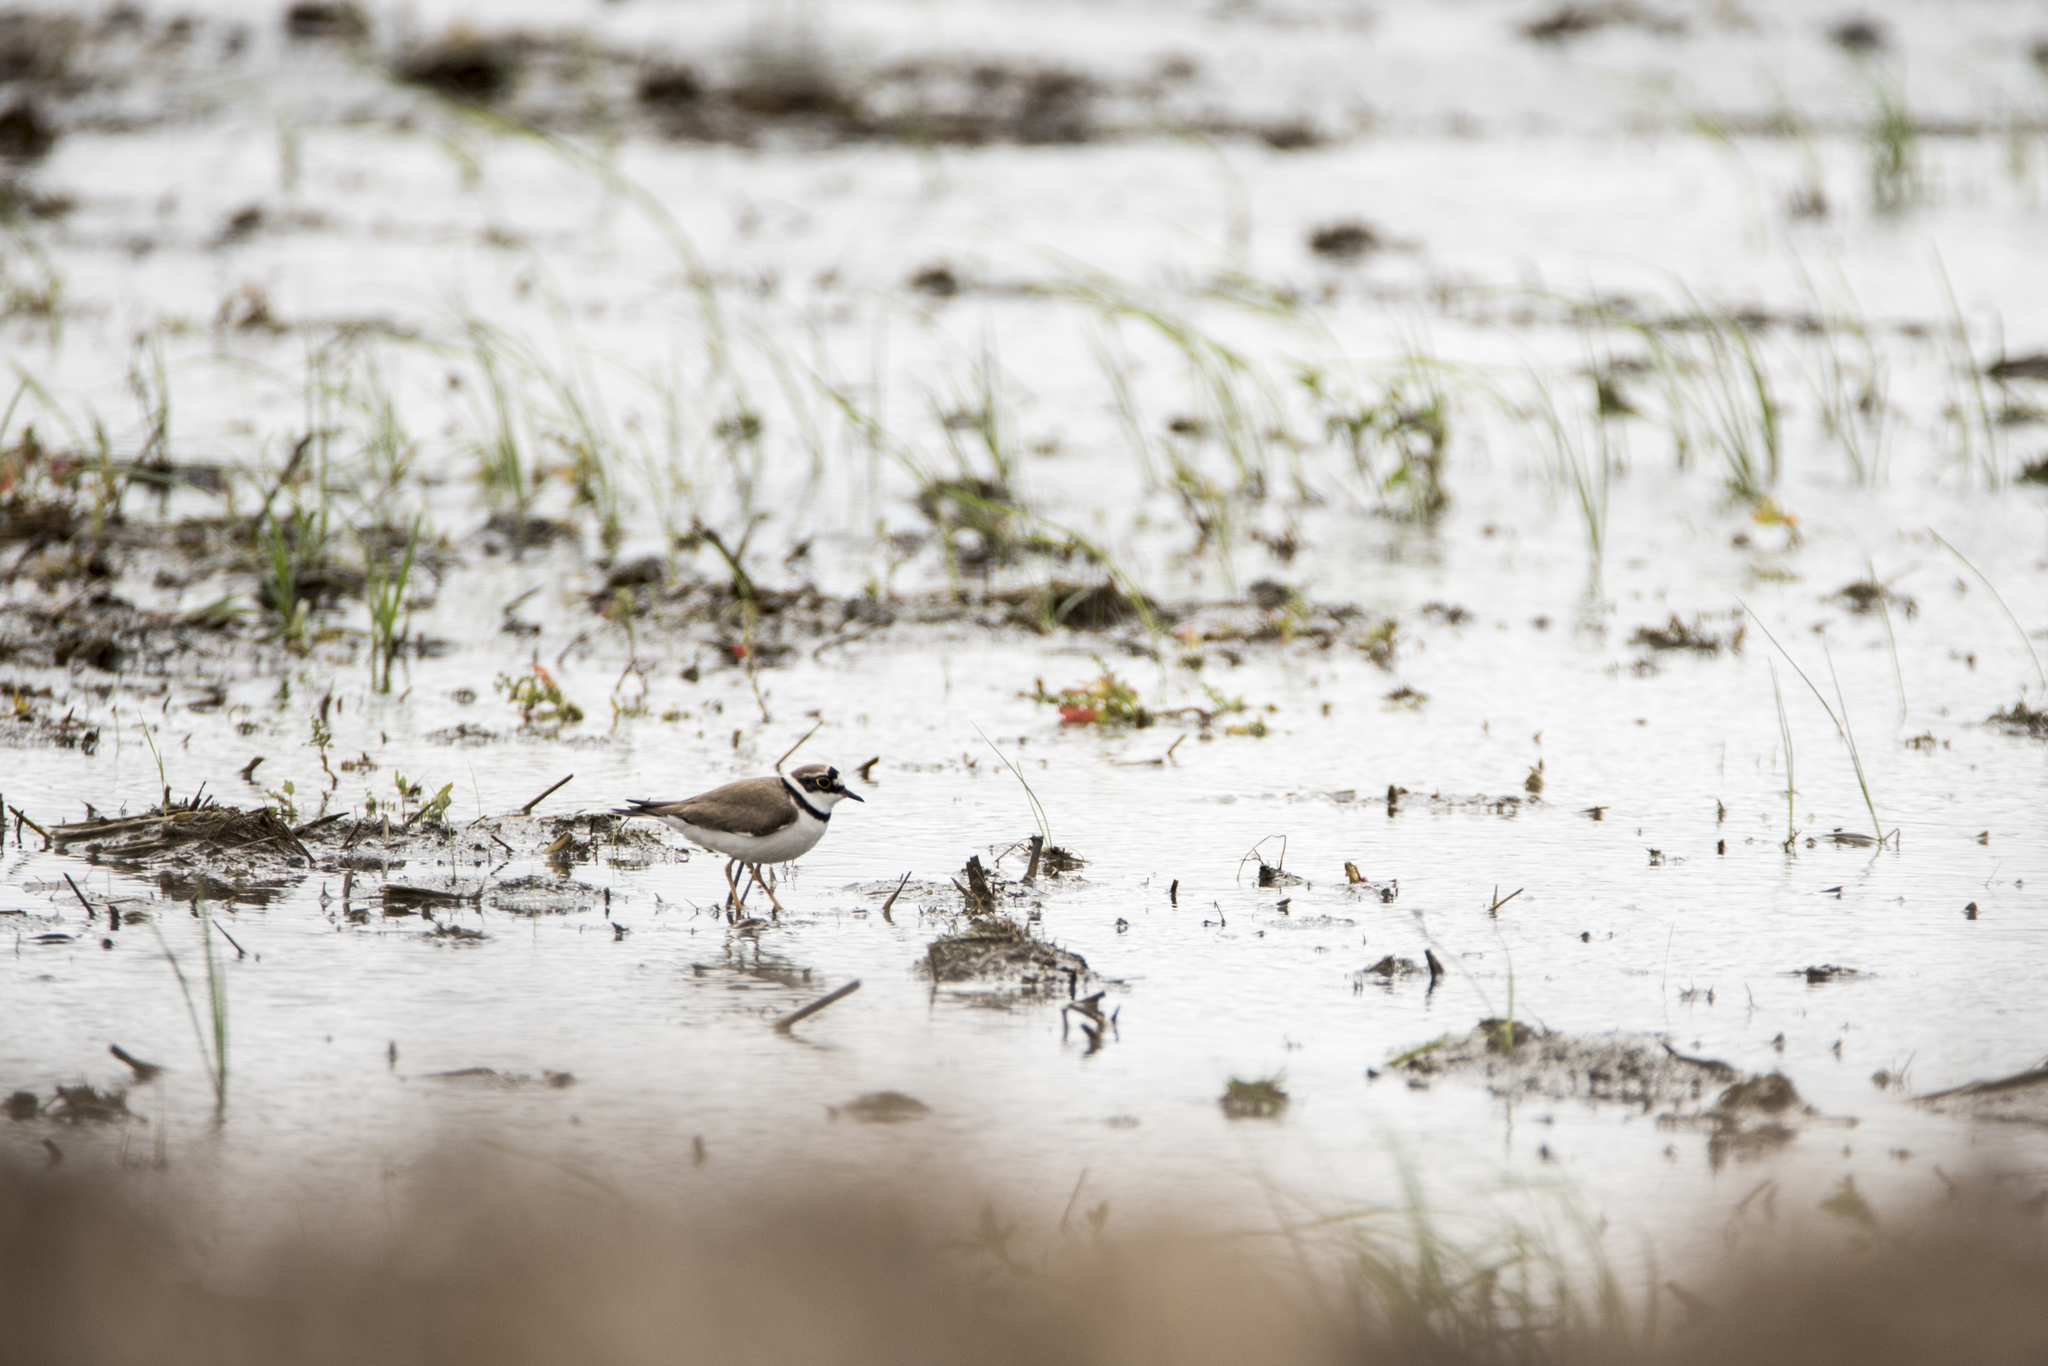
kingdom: Animalia
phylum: Chordata
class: Aves
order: Charadriiformes
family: Charadriidae
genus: Charadrius
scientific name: Charadrius dubius
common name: Little ringed plover
